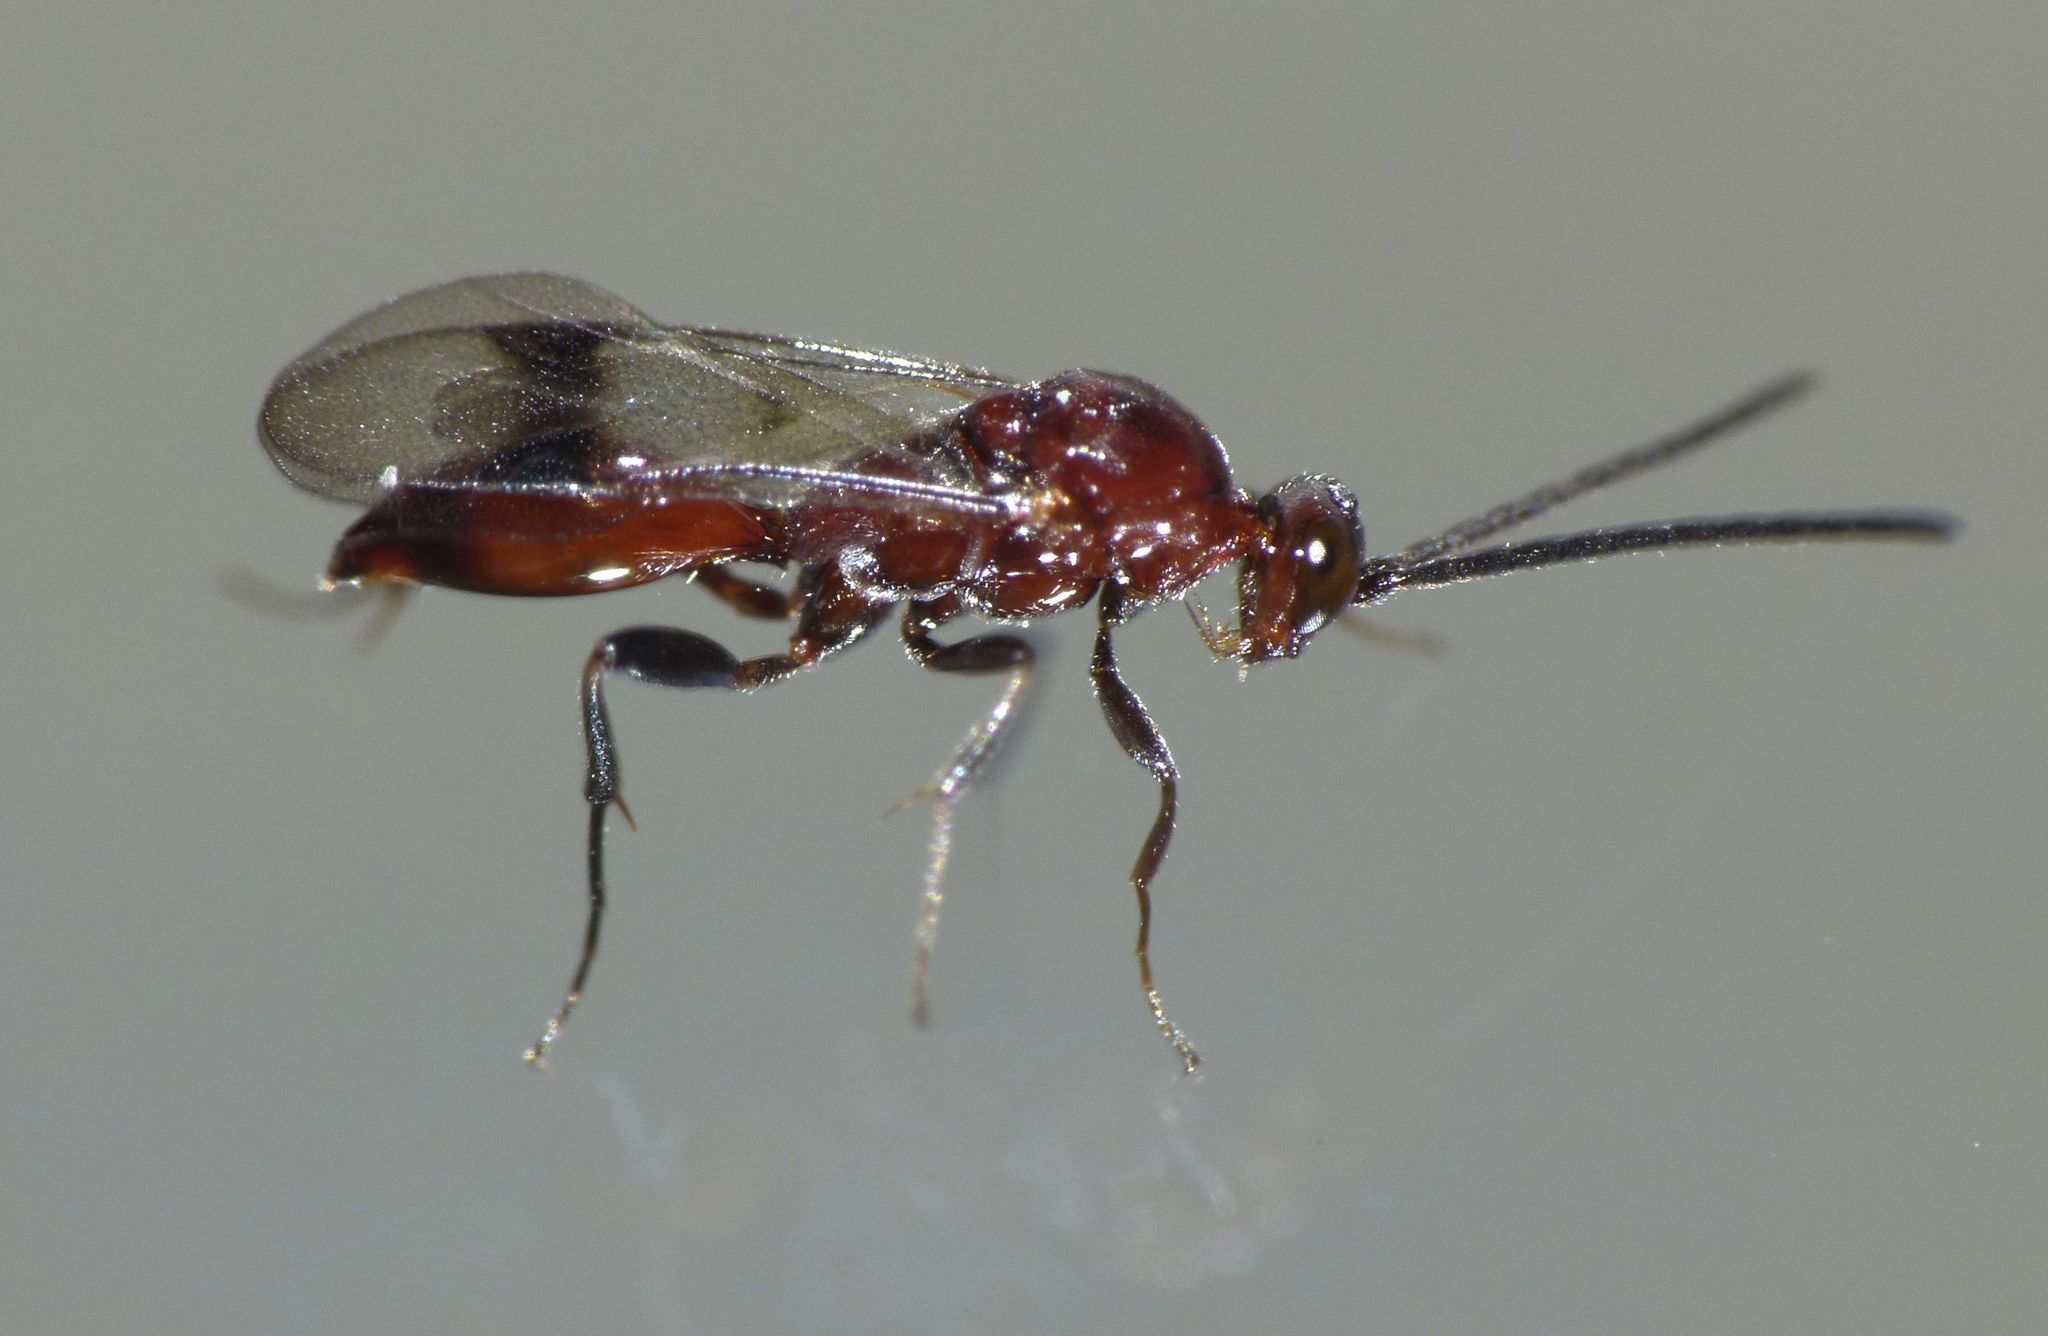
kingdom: Animalia
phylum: Arthropoda
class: Insecta
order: Hymenoptera
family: Proctotrupidae
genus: Fustiserphus
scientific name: Fustiserphus
